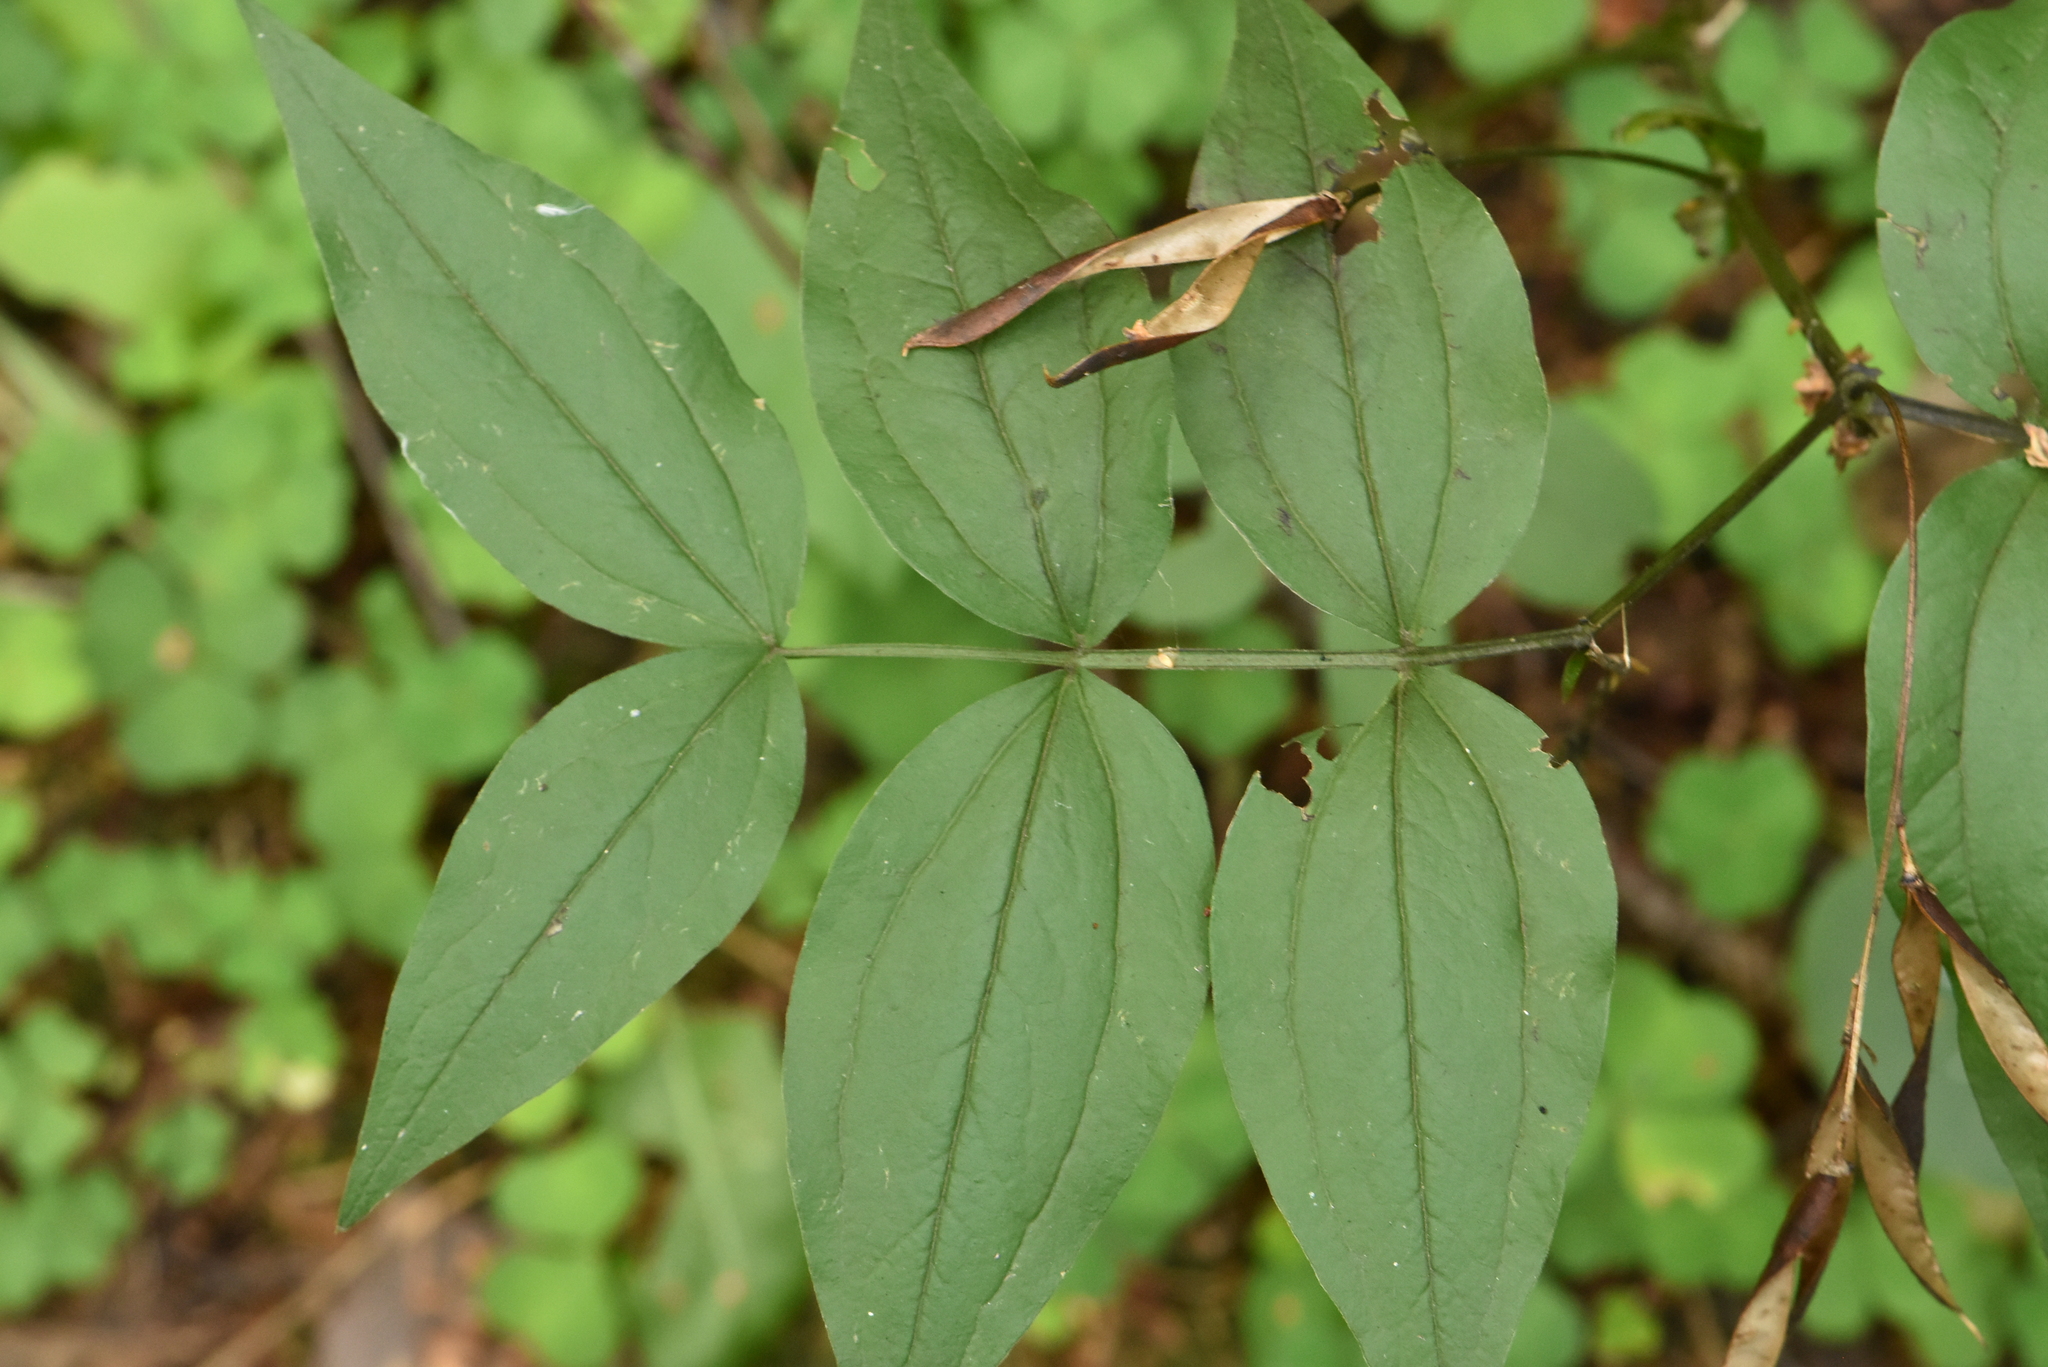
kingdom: Plantae
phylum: Tracheophyta
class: Magnoliopsida
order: Fabales
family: Fabaceae
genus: Lathyrus
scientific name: Lathyrus vernus
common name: Spring pea
